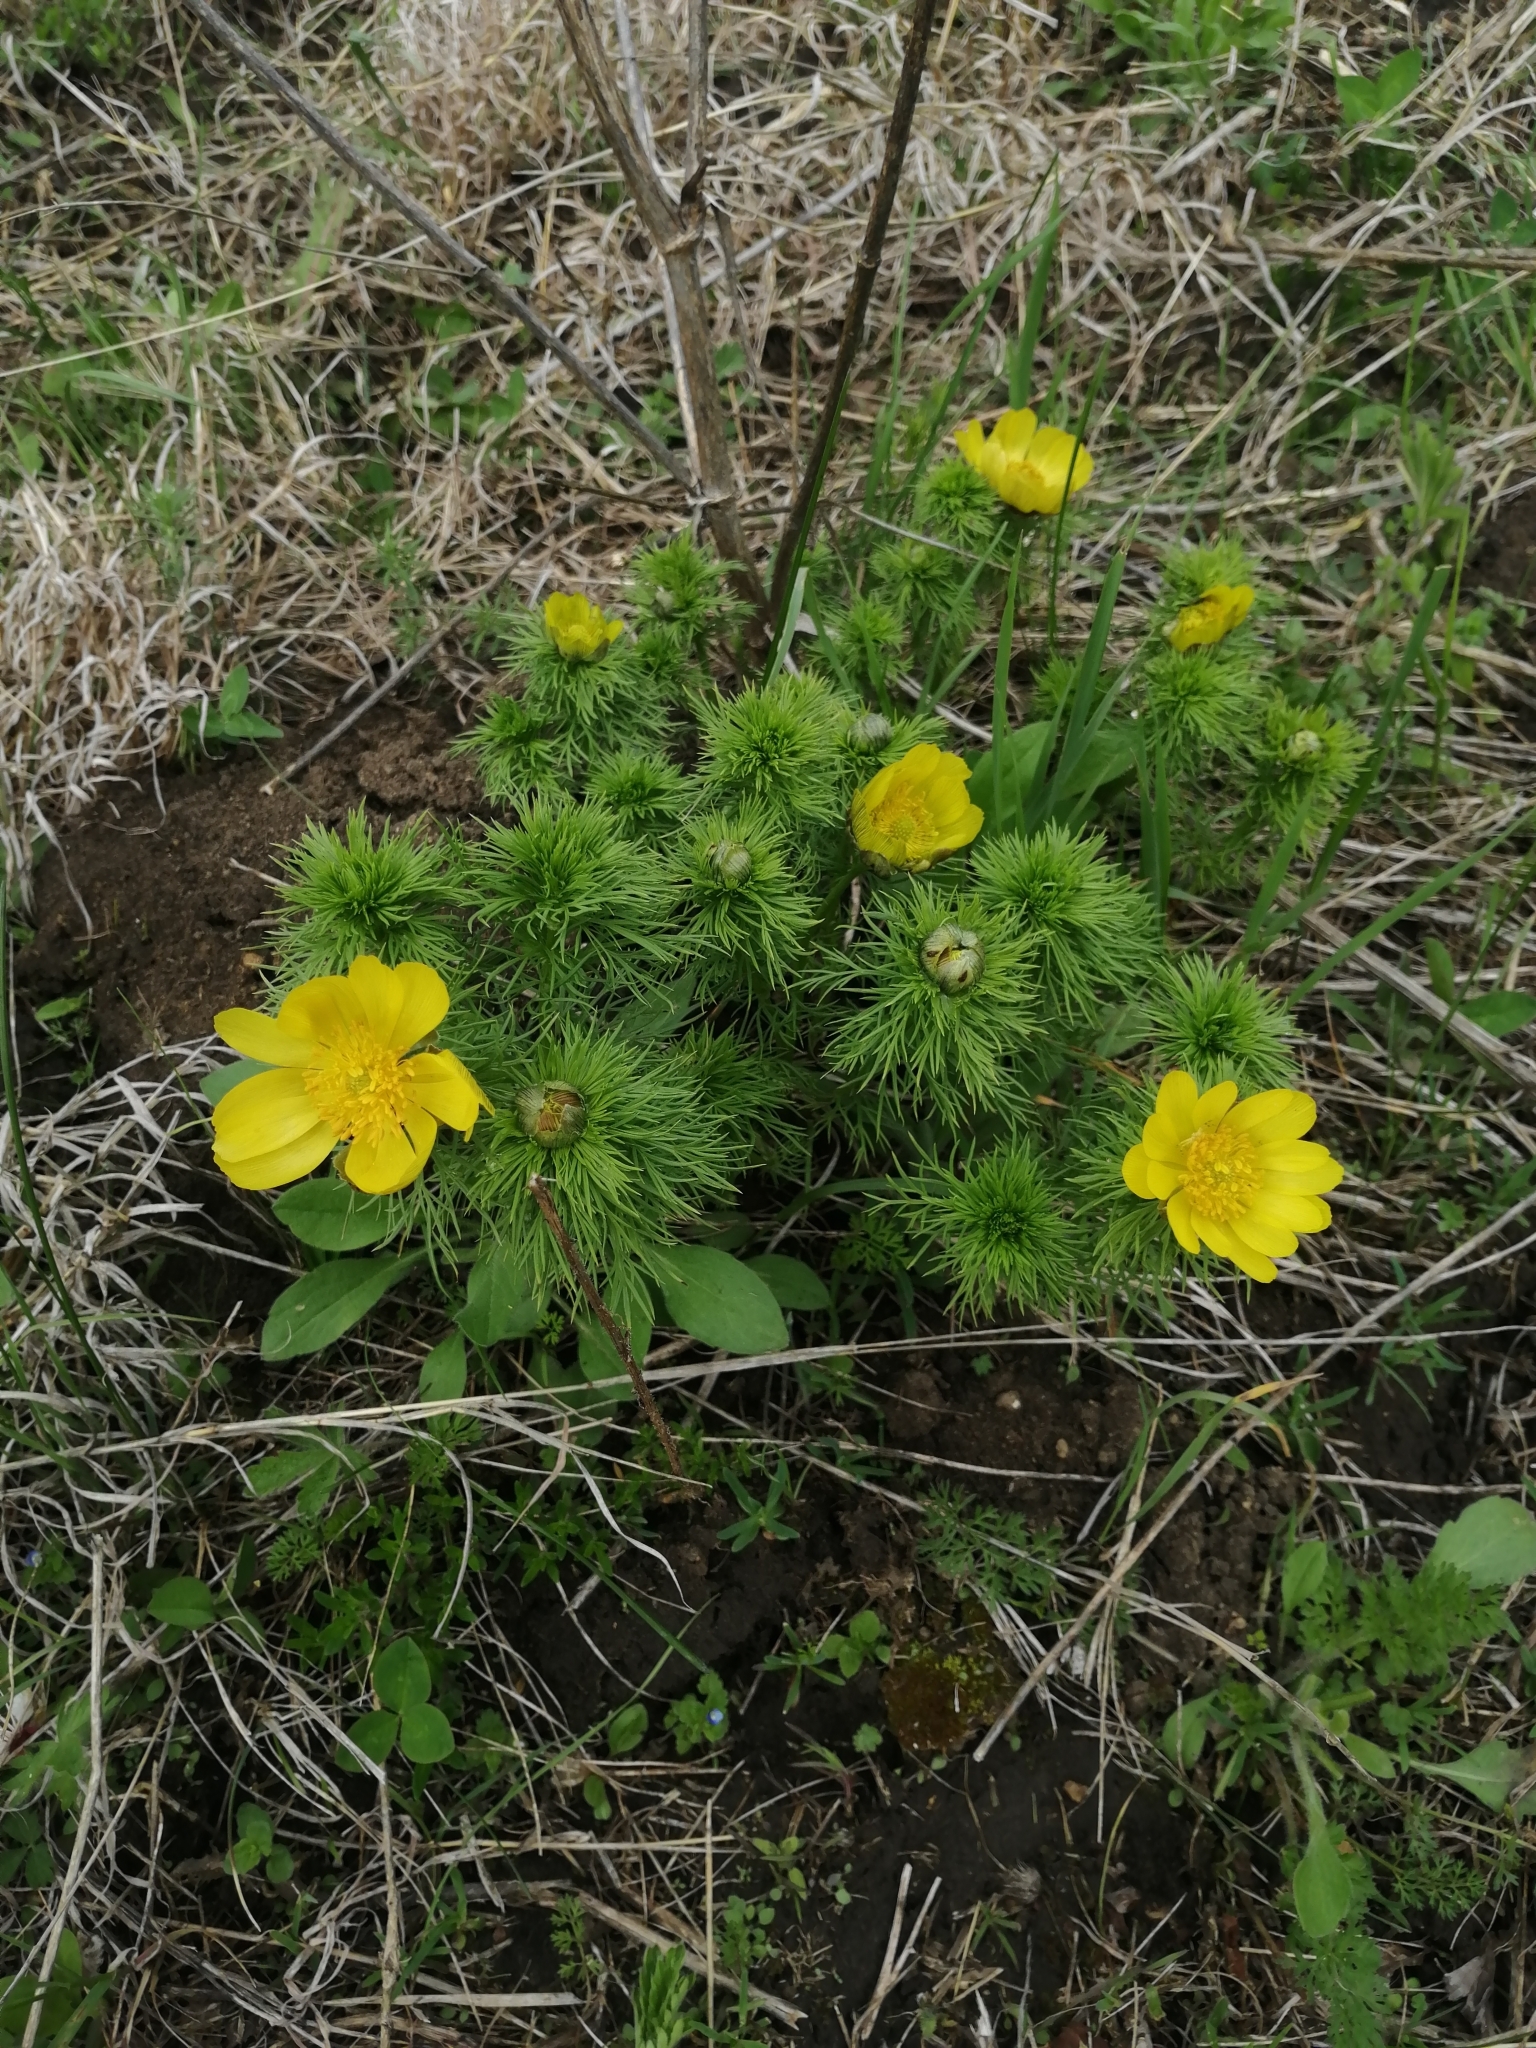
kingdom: Plantae
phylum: Tracheophyta
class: Magnoliopsida
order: Ranunculales
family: Ranunculaceae
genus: Adonis
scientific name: Adonis vernalis
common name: Yellow pheasants-eye
